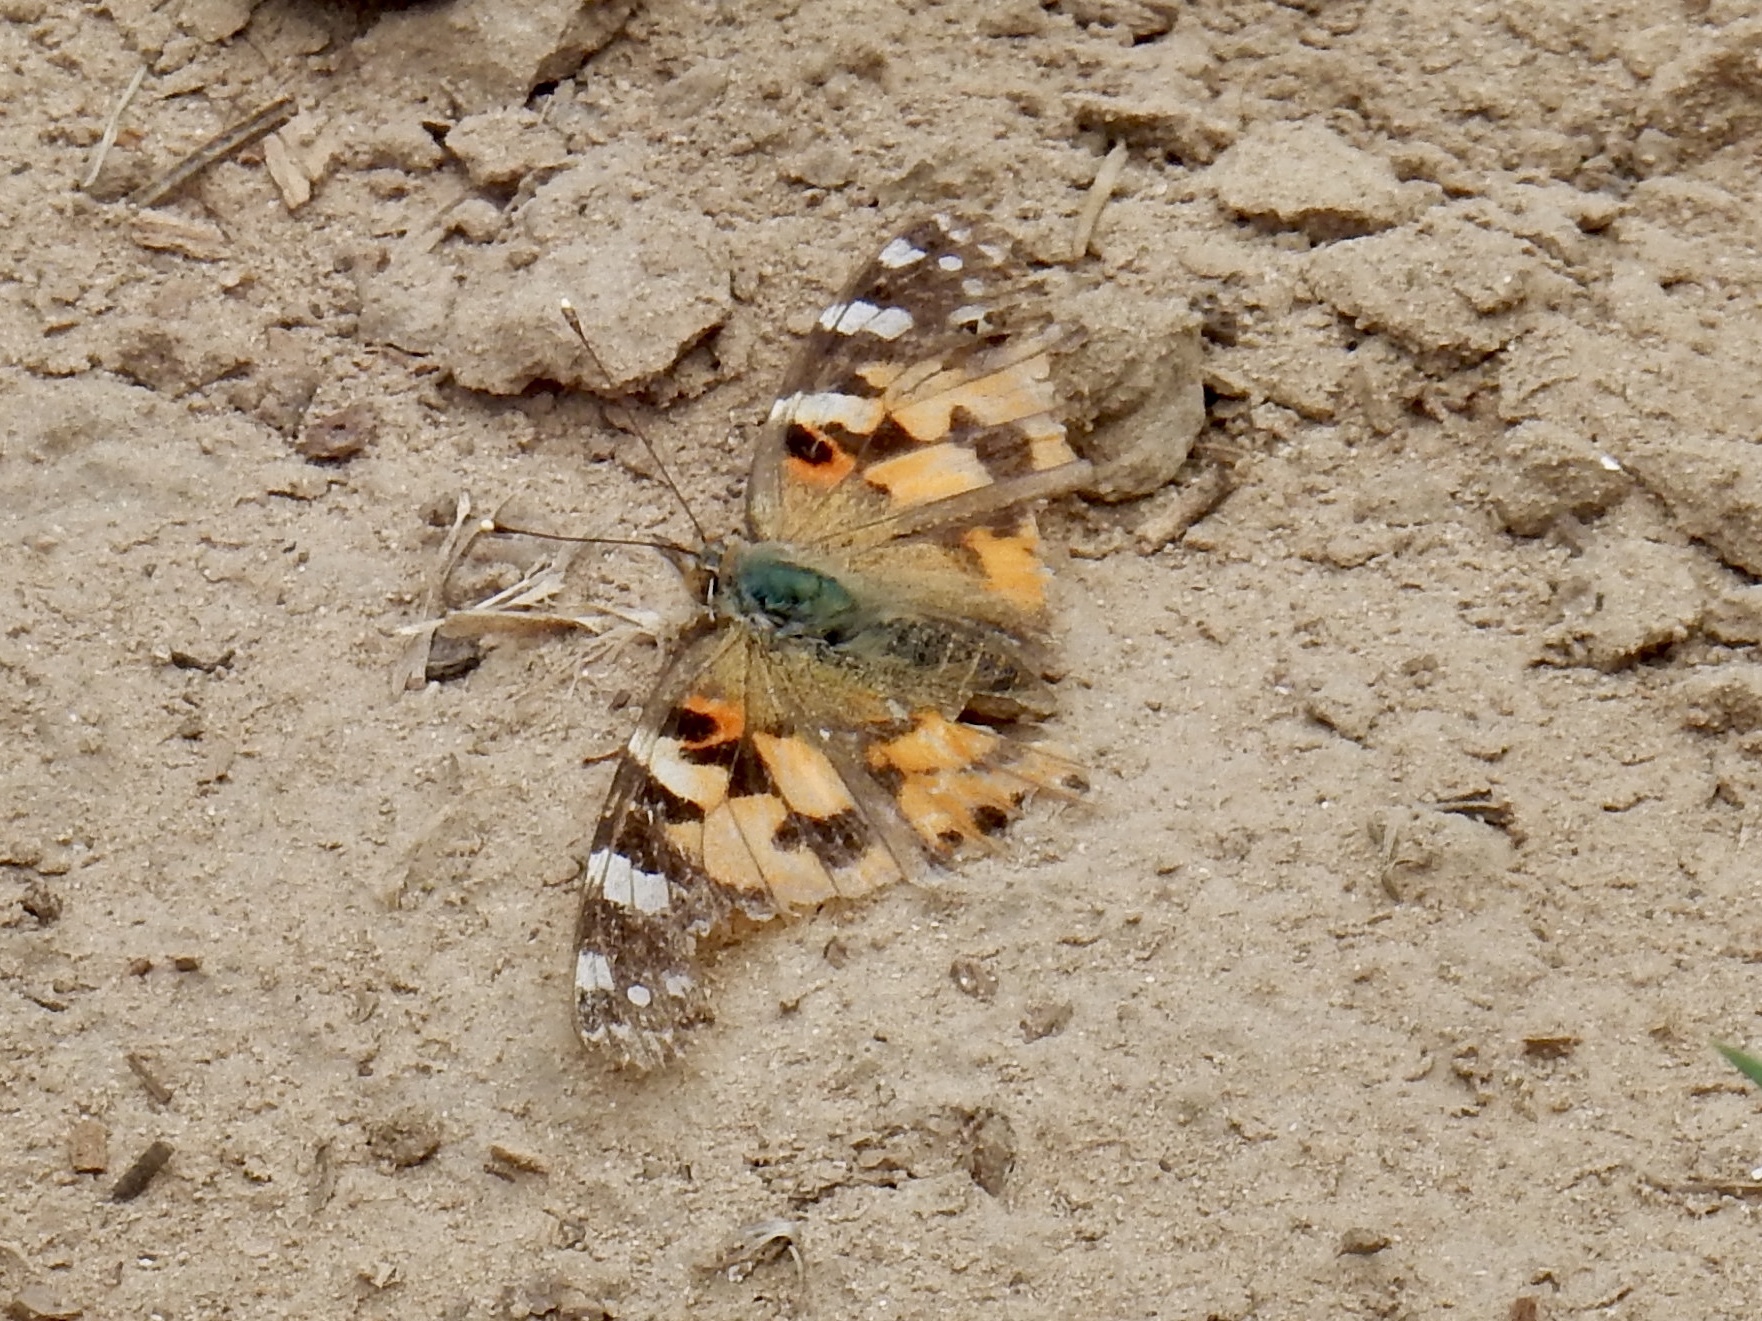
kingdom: Animalia
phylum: Arthropoda
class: Insecta
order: Lepidoptera
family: Nymphalidae
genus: Vanessa
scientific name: Vanessa cardui
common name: Painted lady
